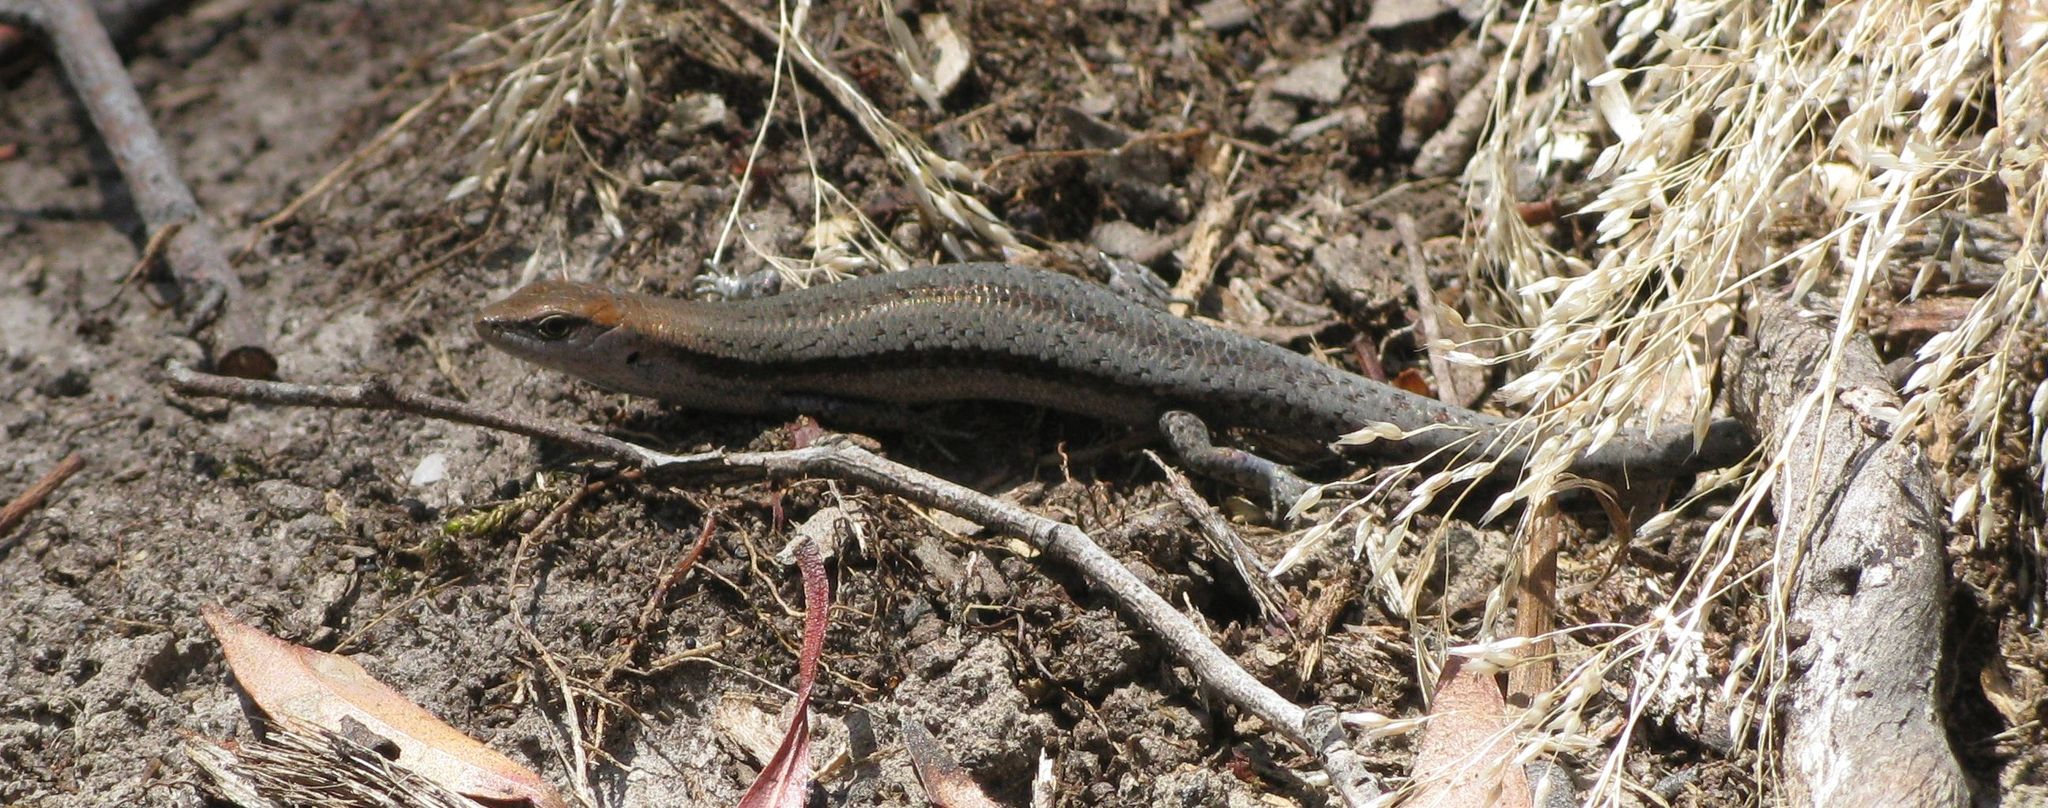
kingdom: Animalia
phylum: Chordata
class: Squamata
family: Scincidae
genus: Lampropholis
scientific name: Lampropholis guichenoti
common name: Garden skink
